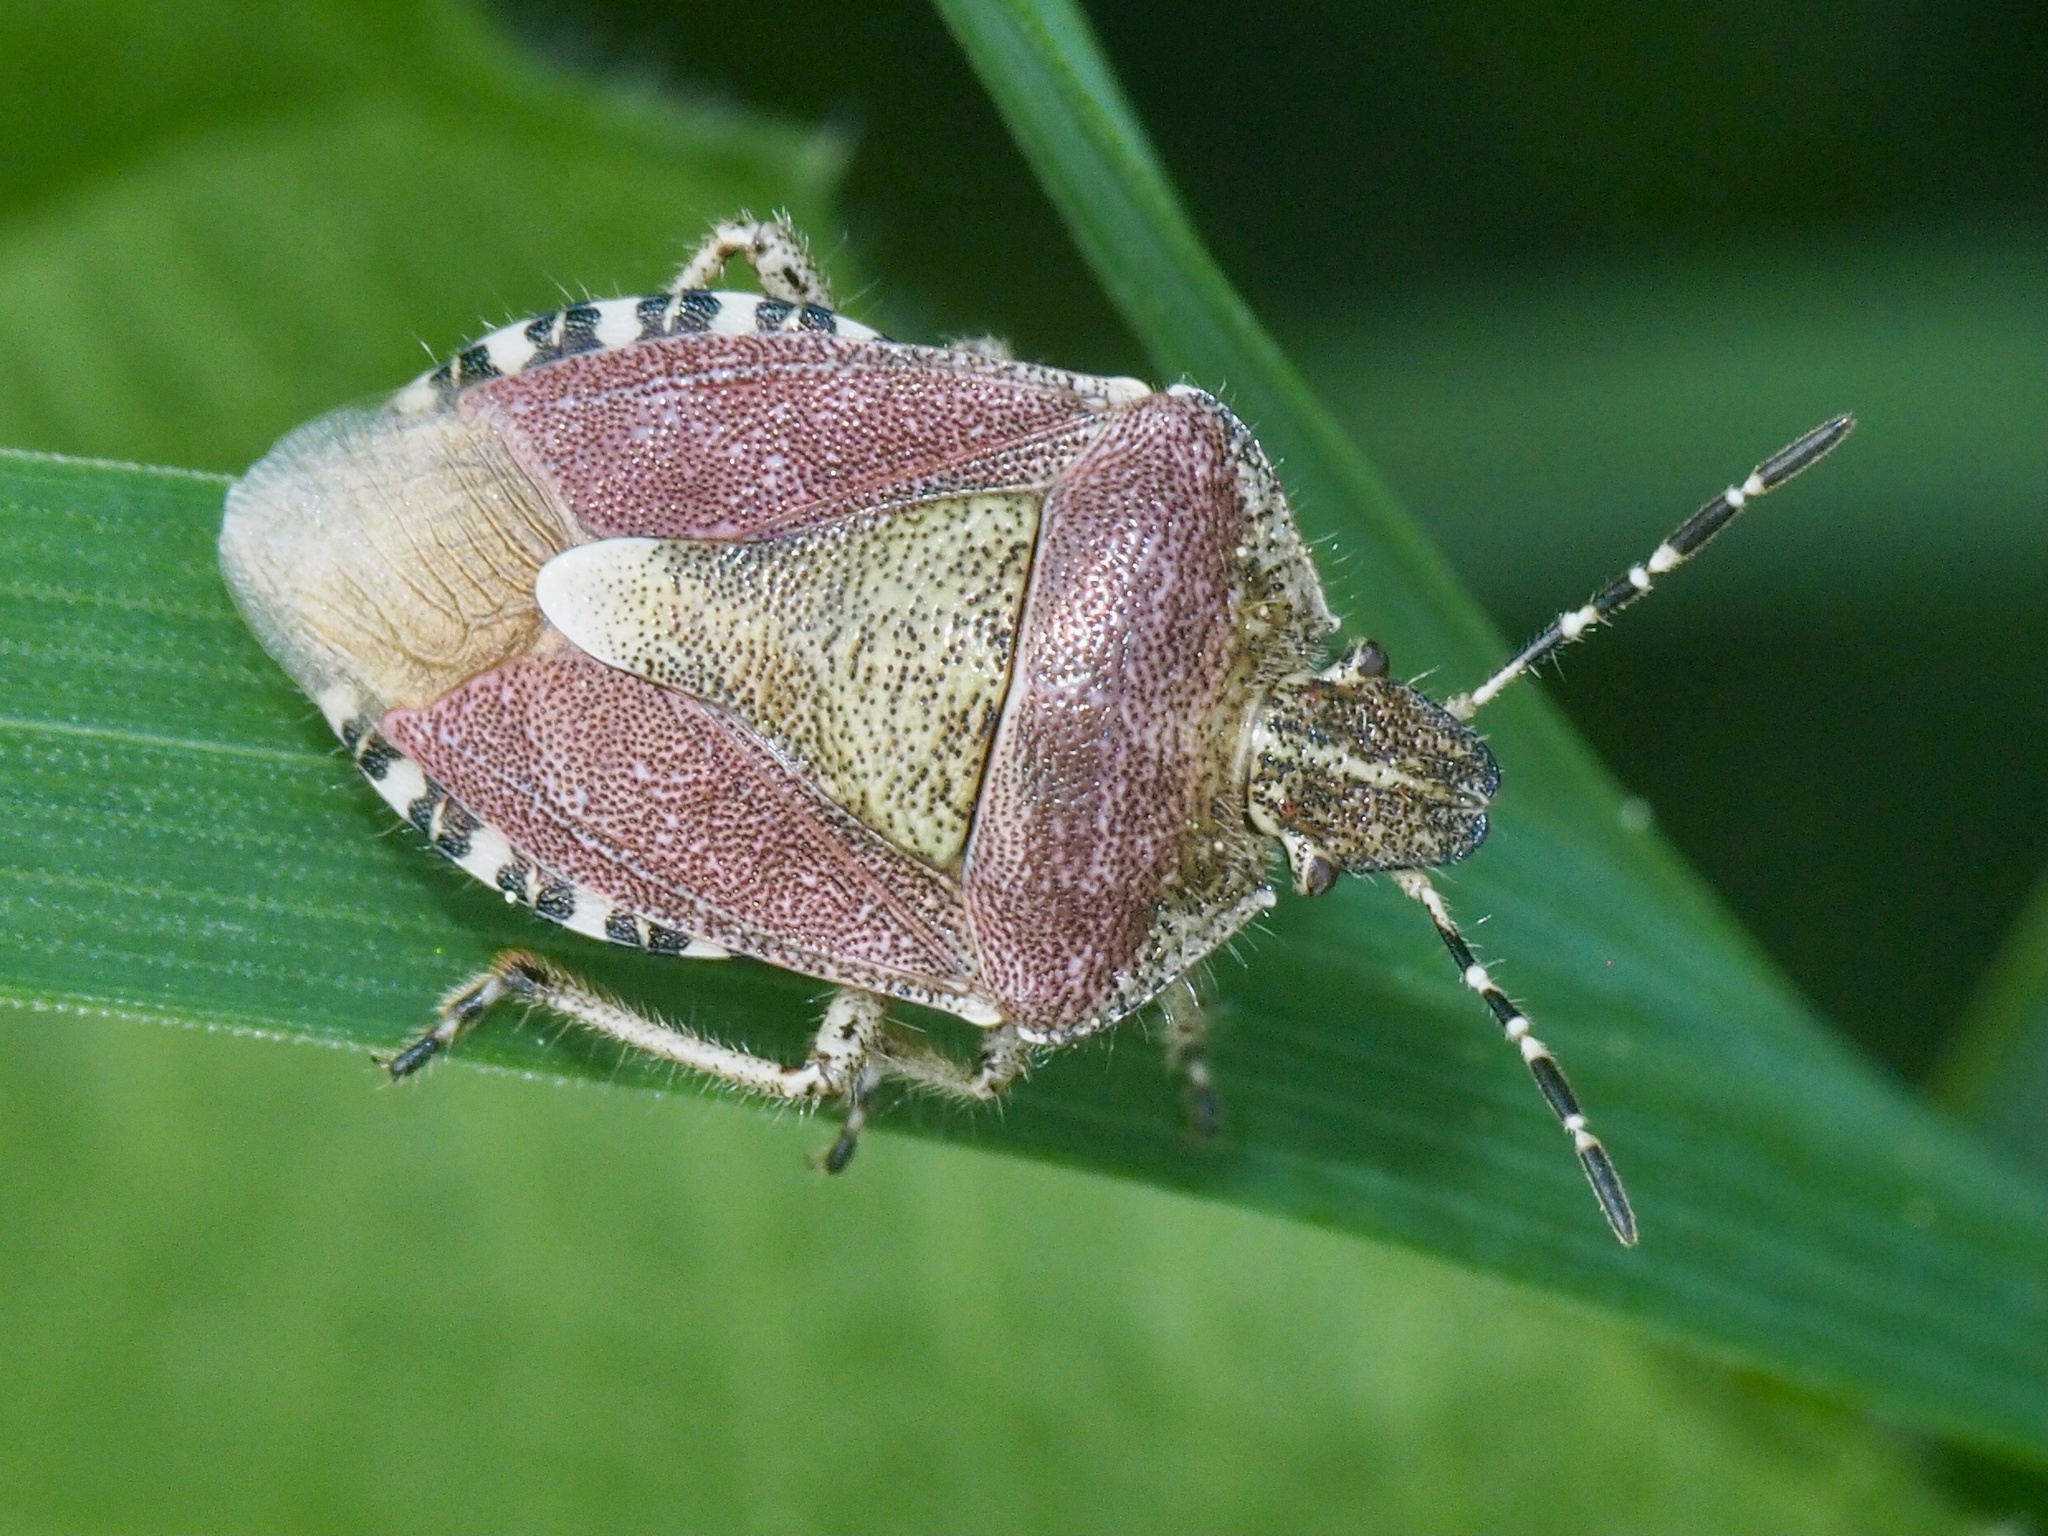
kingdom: Animalia
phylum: Arthropoda
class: Insecta
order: Hemiptera
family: Pentatomidae
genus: Dolycoris
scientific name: Dolycoris baccarum
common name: Sloe bug
